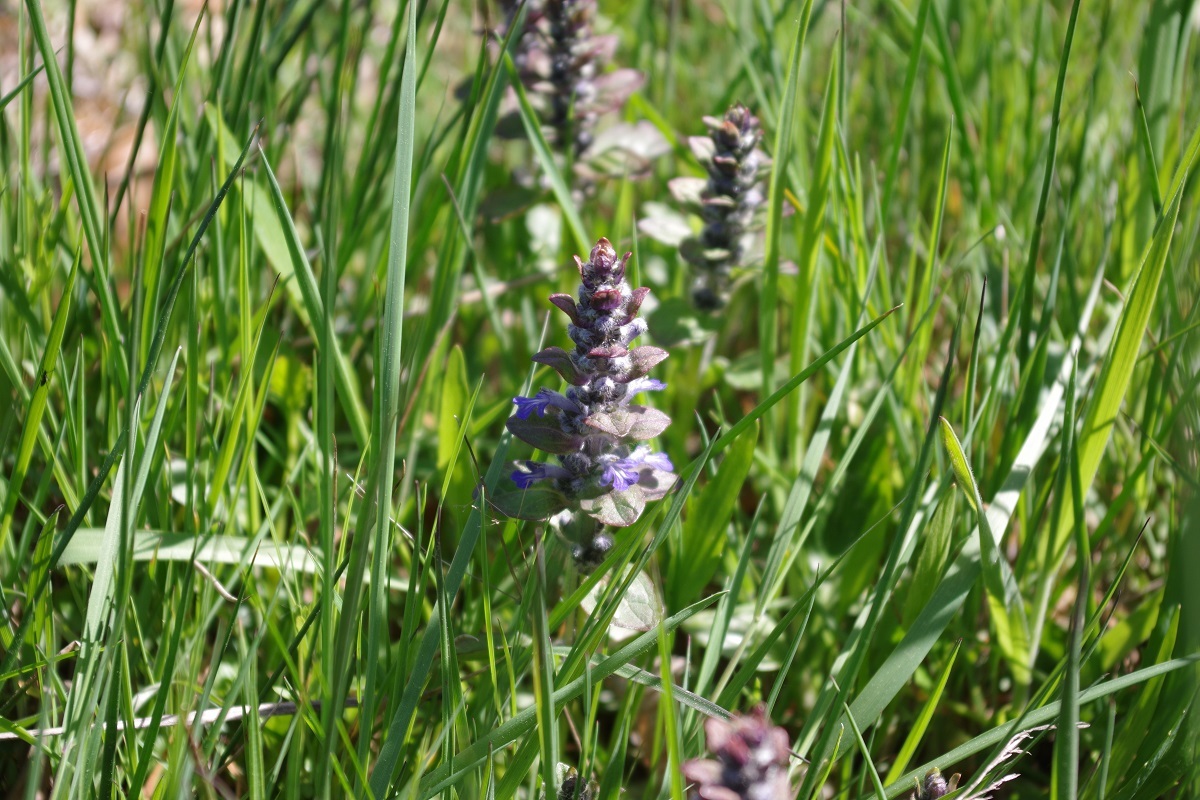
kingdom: Plantae
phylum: Tracheophyta
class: Magnoliopsida
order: Lamiales
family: Lamiaceae
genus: Ajuga
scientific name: Ajuga reptans
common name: Bugle
